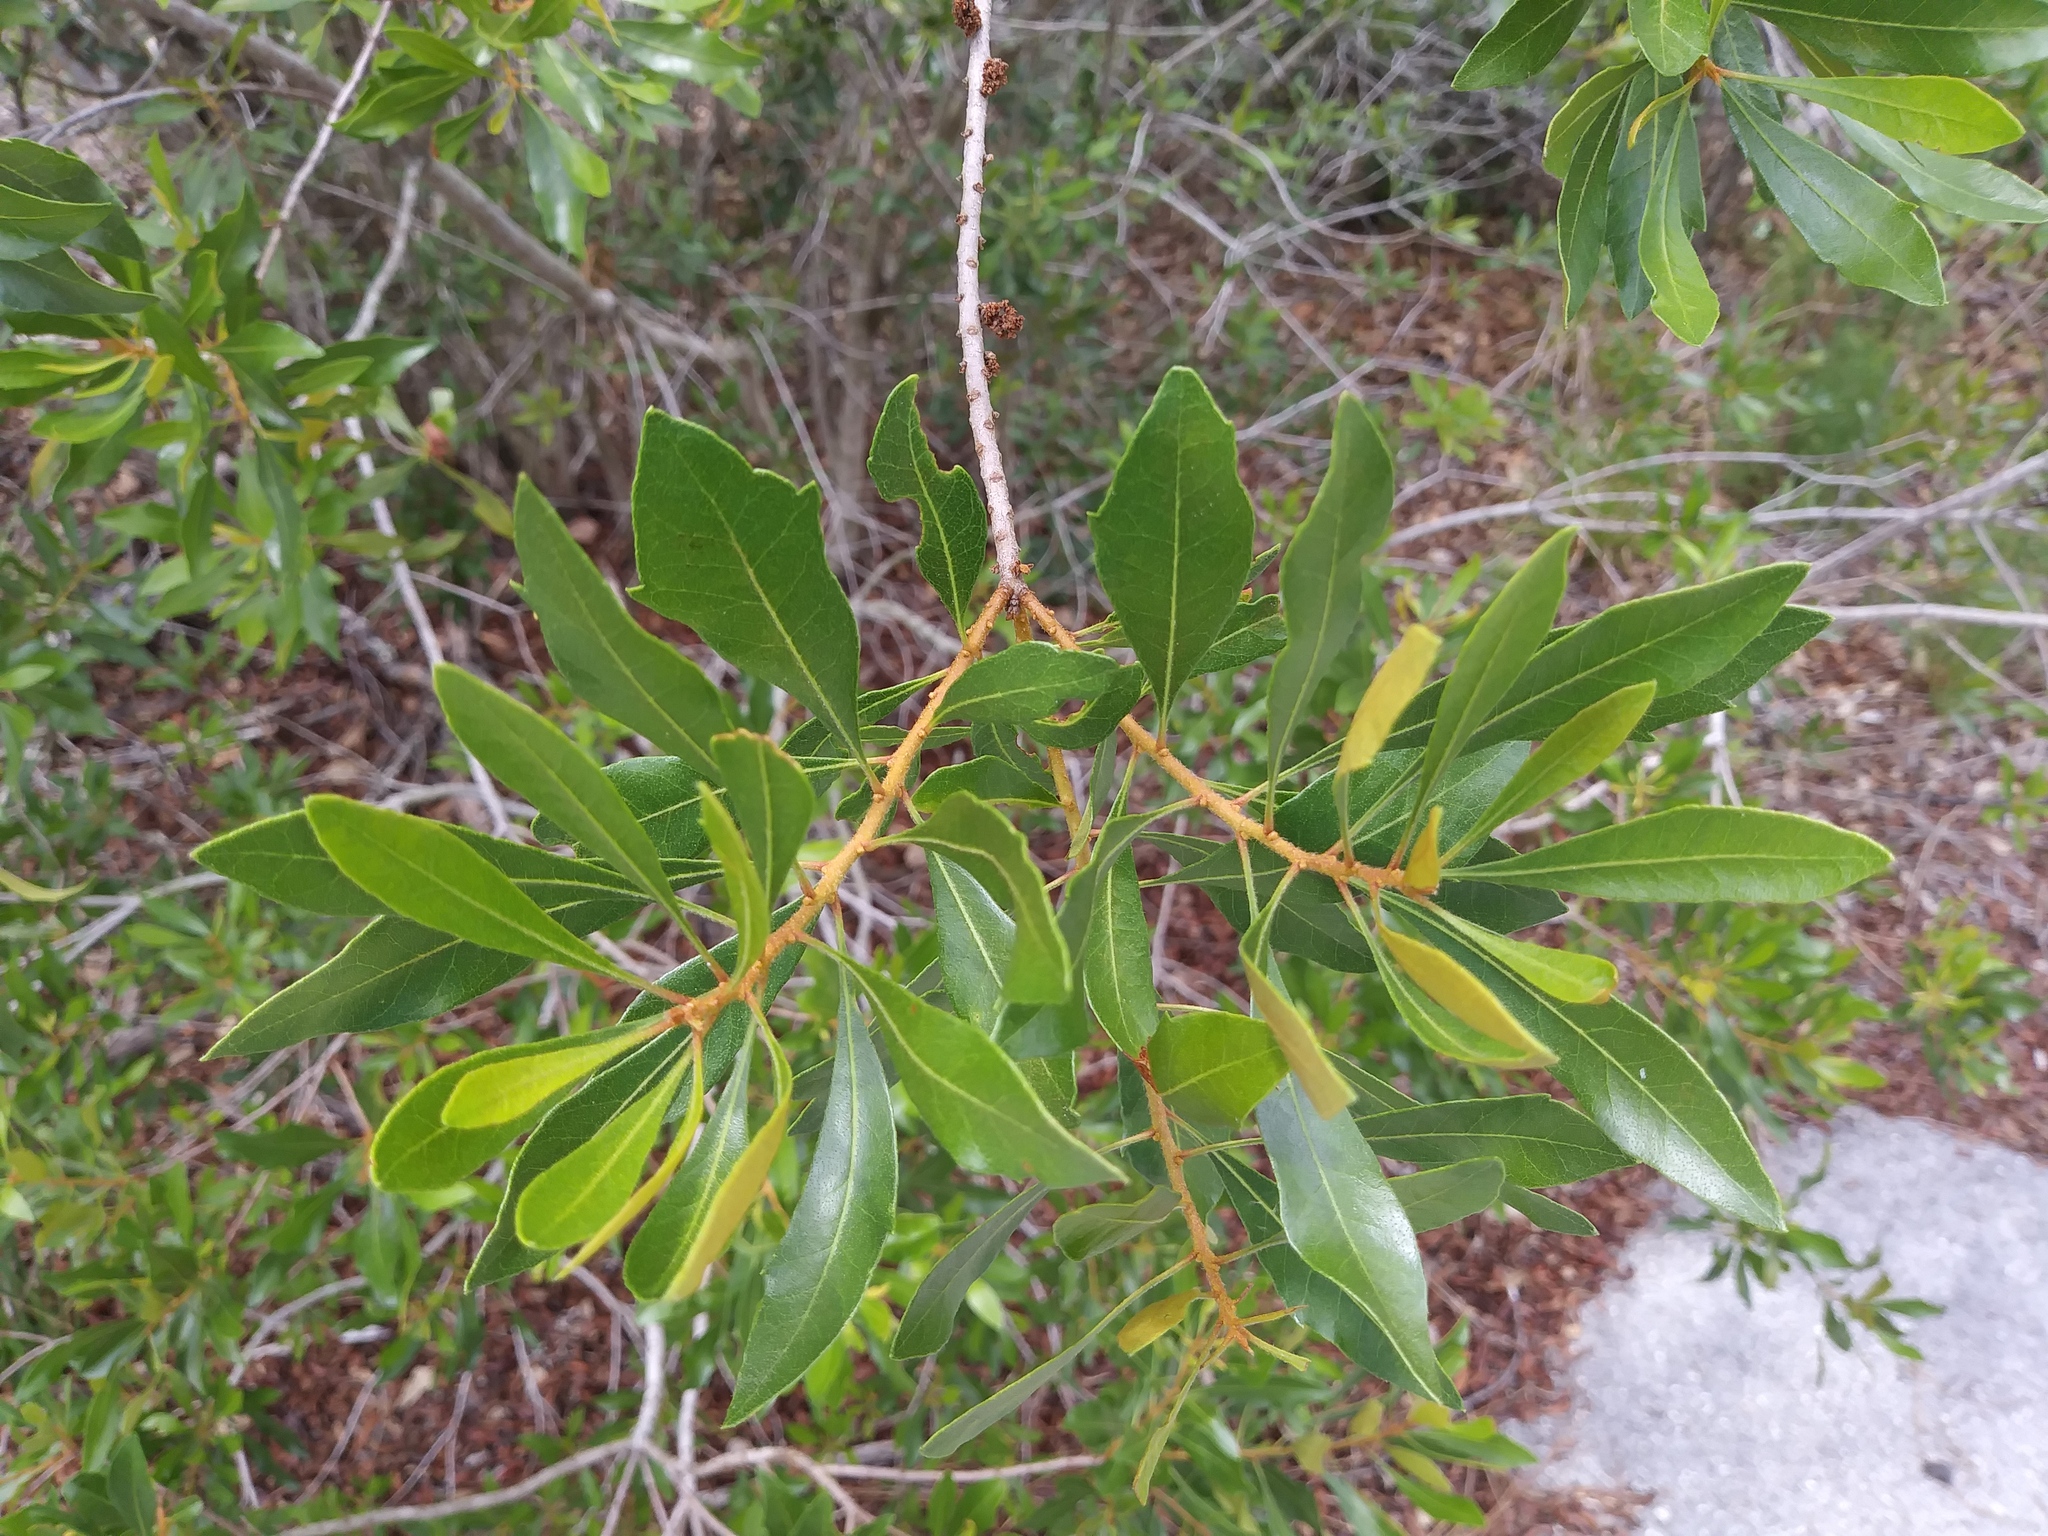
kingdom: Plantae
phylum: Tracheophyta
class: Magnoliopsida
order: Fagales
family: Myricaceae
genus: Morella
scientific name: Morella cerifera
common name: Wax myrtle
